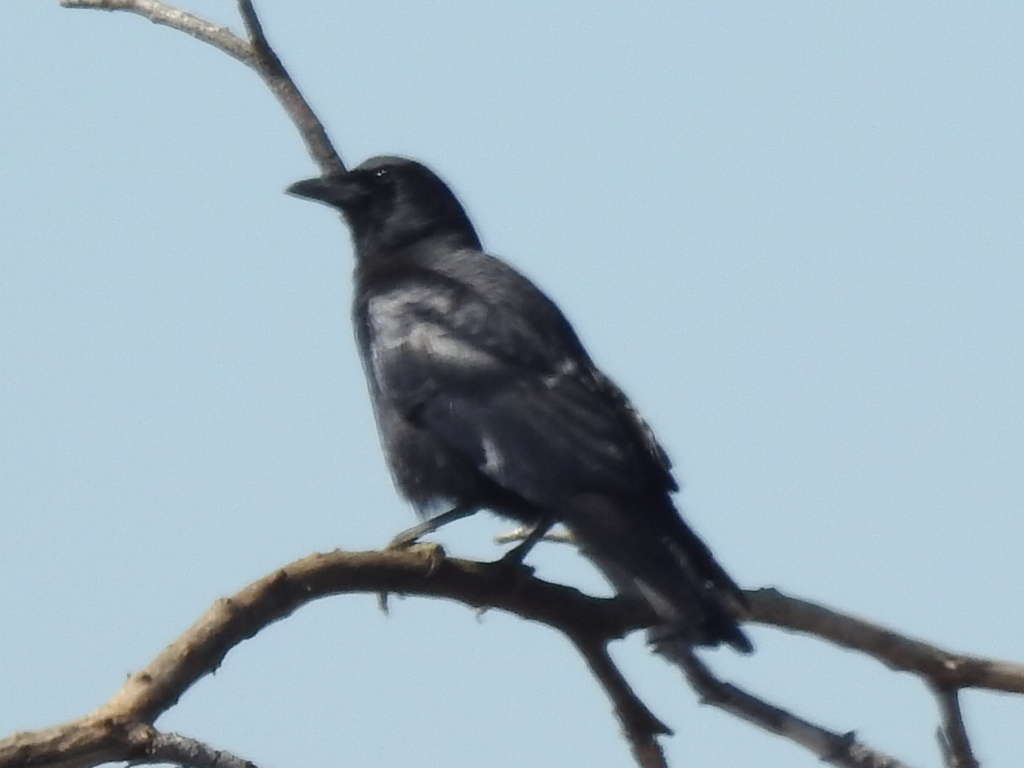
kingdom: Animalia
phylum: Chordata
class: Aves
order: Passeriformes
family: Corvidae
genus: Corvus
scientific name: Corvus brachyrhynchos
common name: American crow
